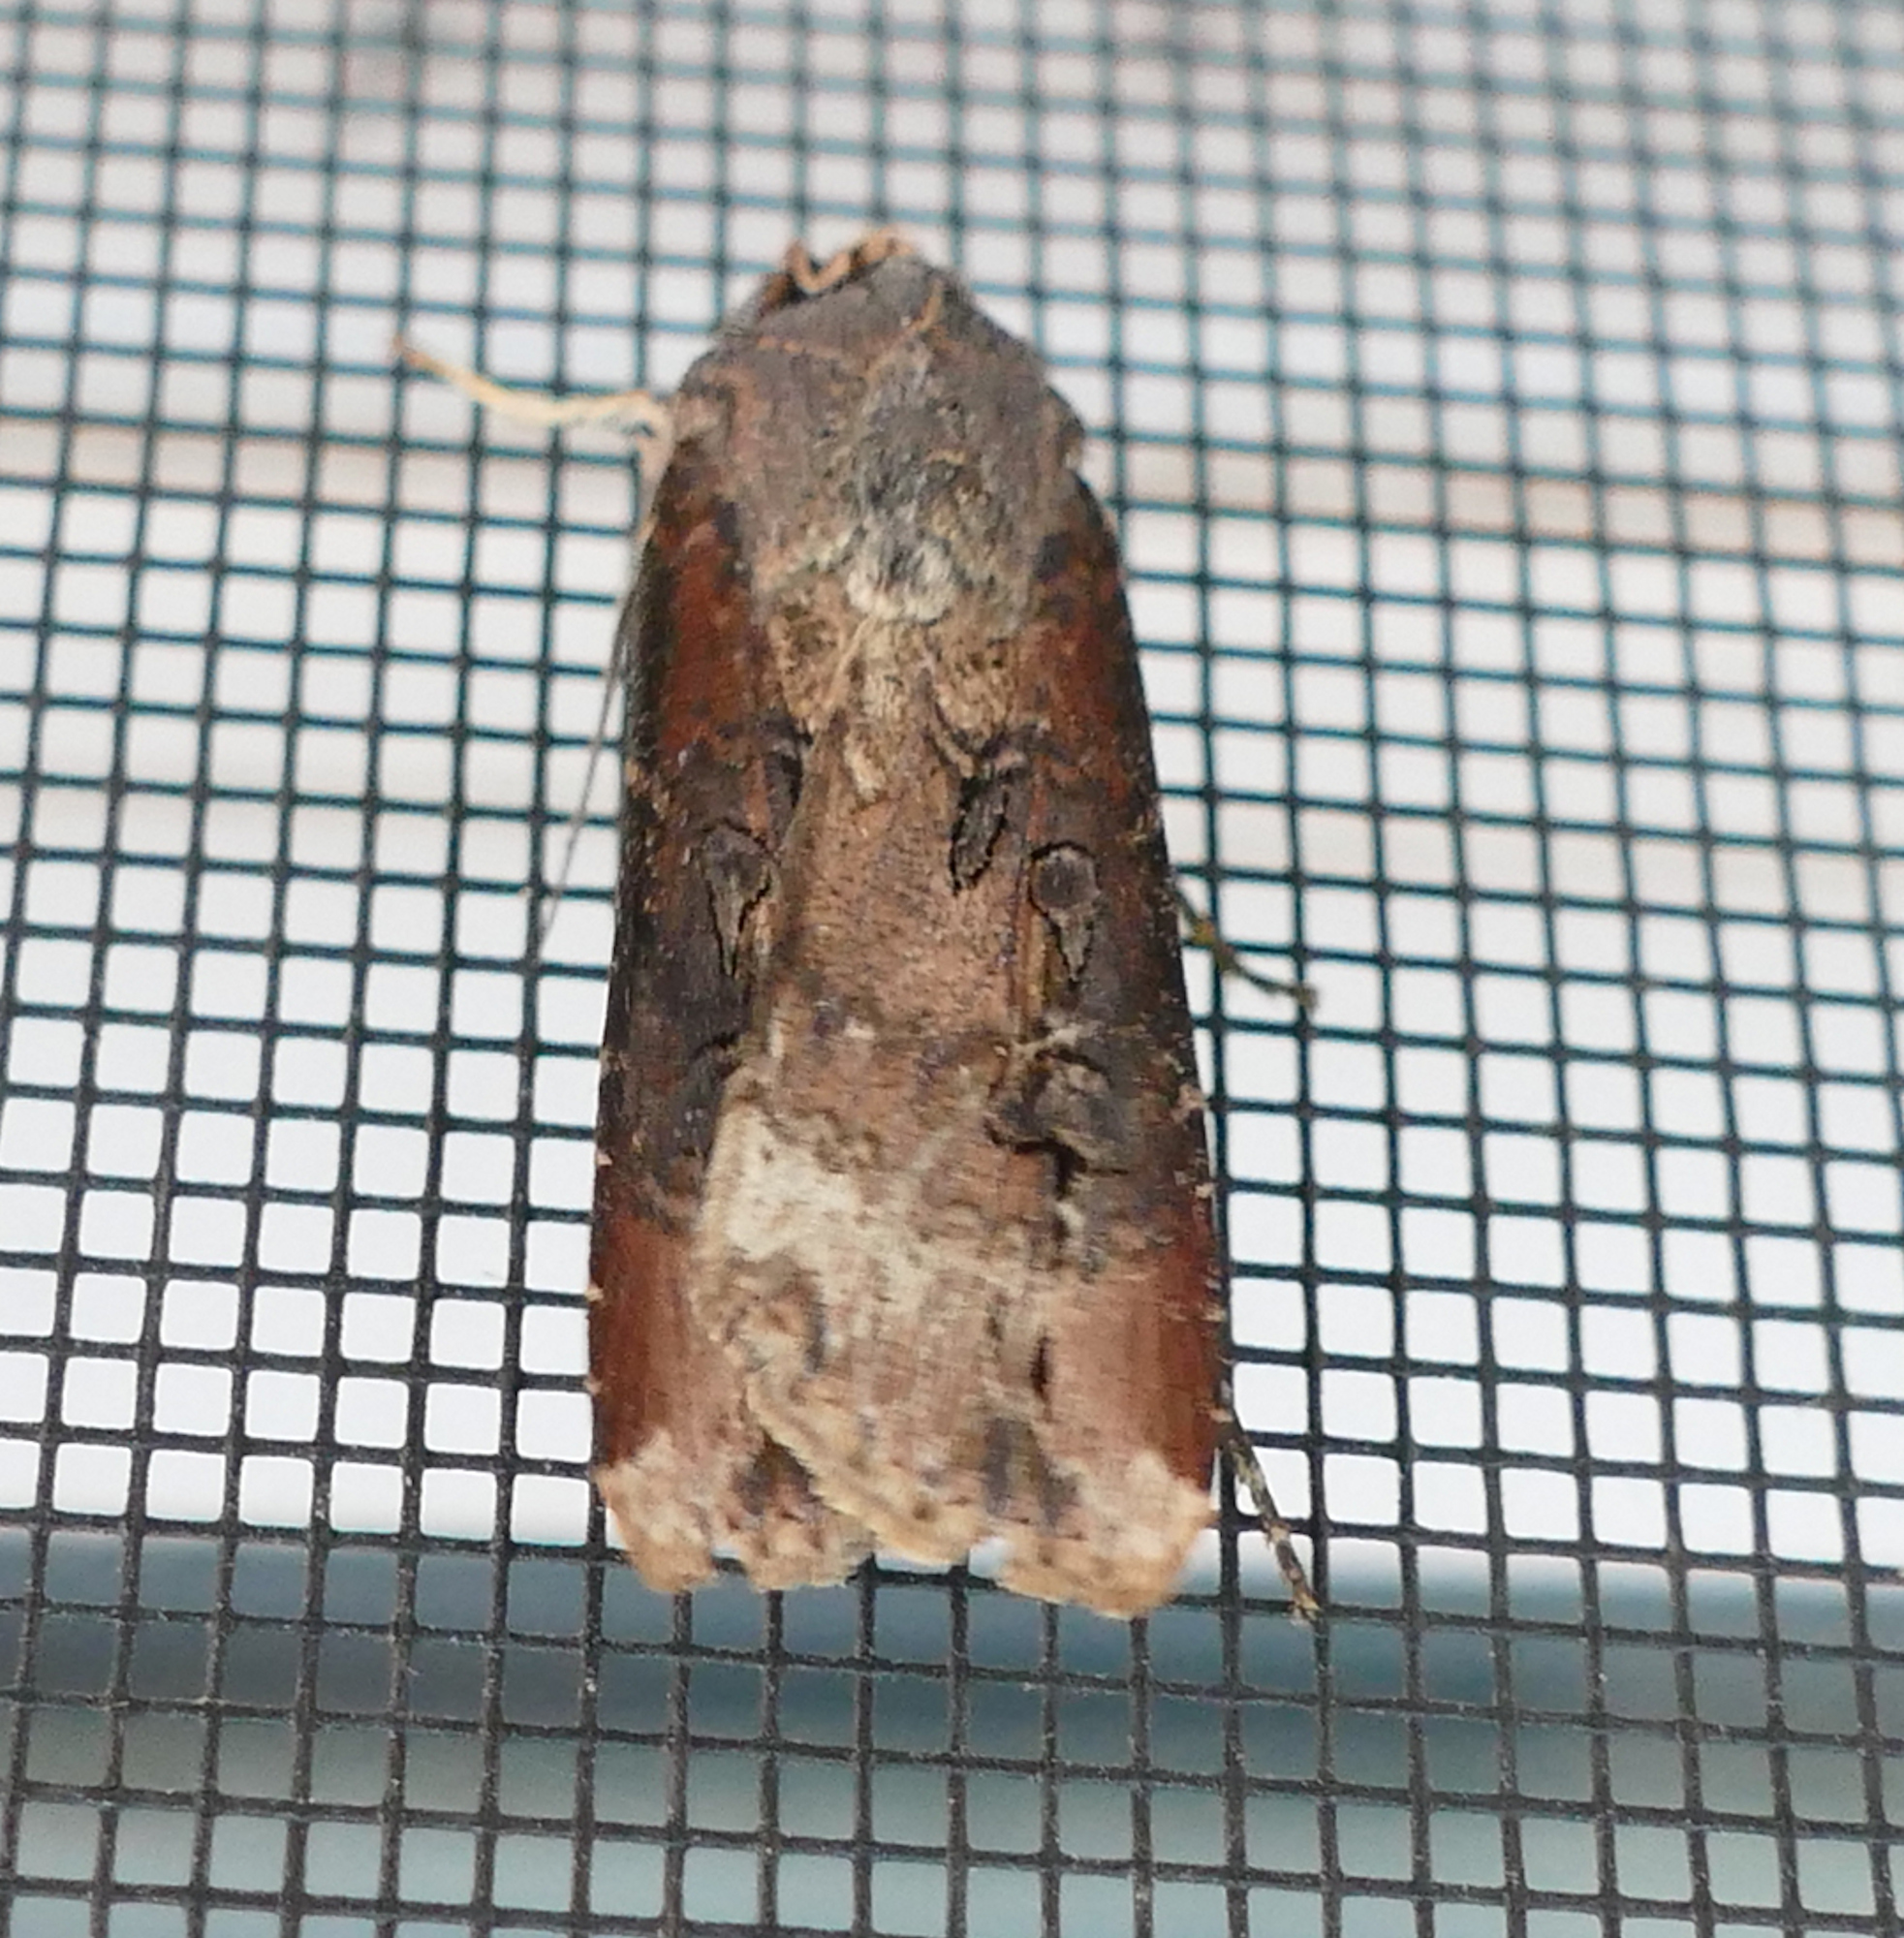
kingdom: Animalia
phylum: Arthropoda
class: Insecta
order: Lepidoptera
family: Noctuidae
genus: Agrotis
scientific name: Agrotis ipsilon
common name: Dark sword-grass
